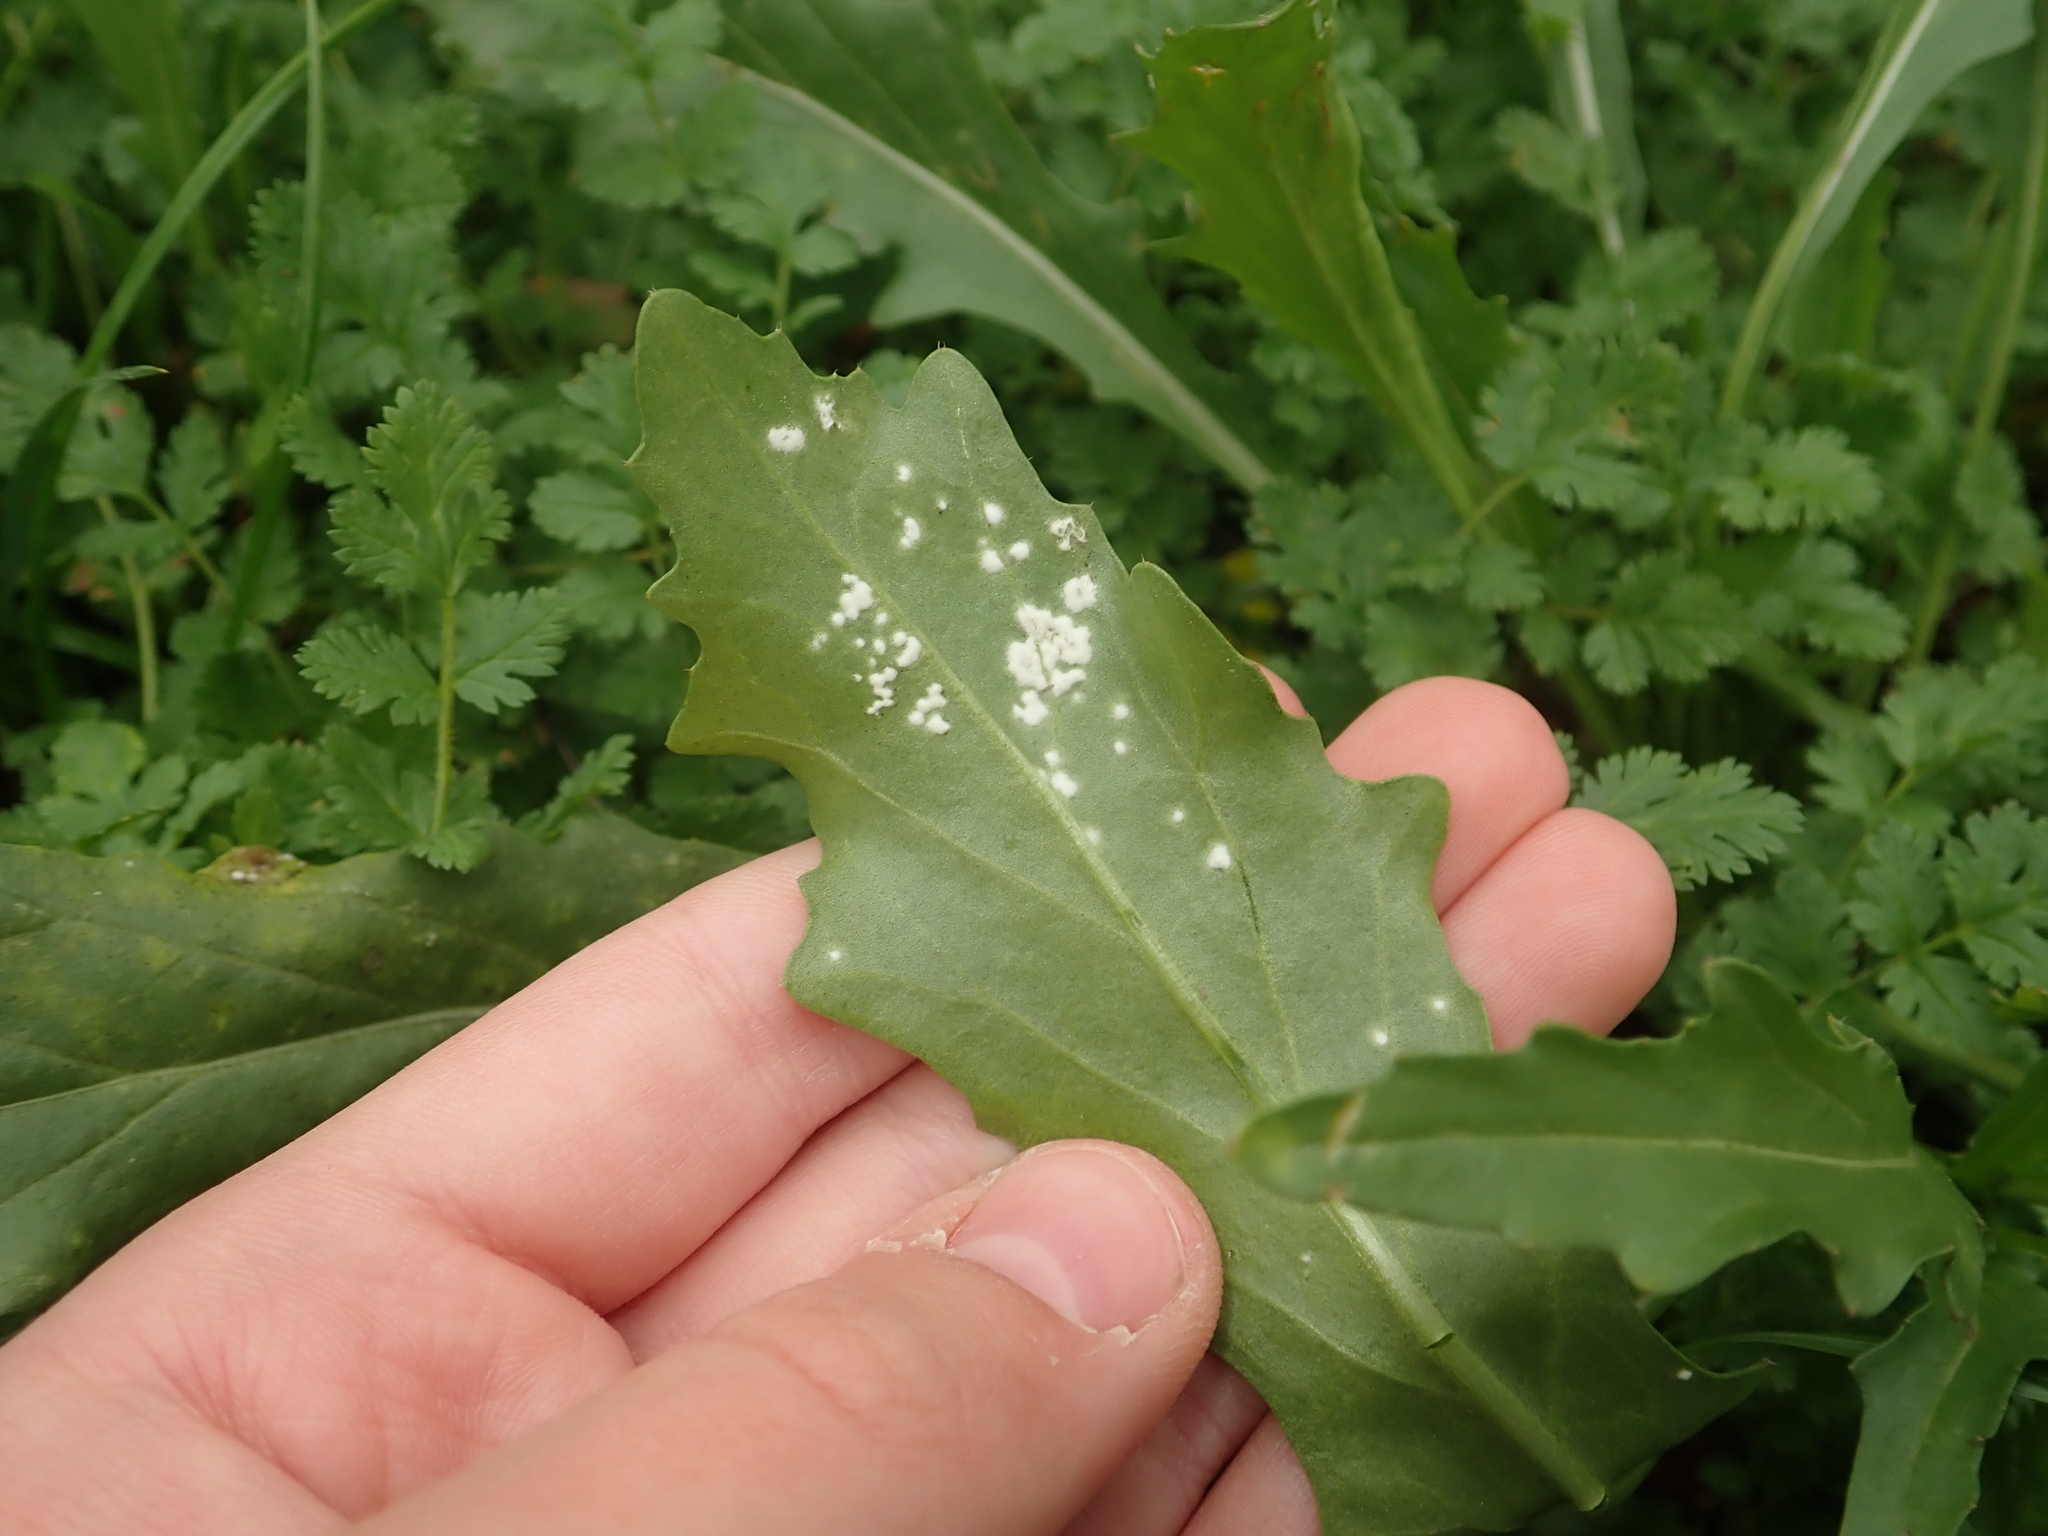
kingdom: Chromista
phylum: Oomycota
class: Peronosporea
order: Albuginales
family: Albuginaceae
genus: Albugo
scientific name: Albugo candida
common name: Crucifer white blister
